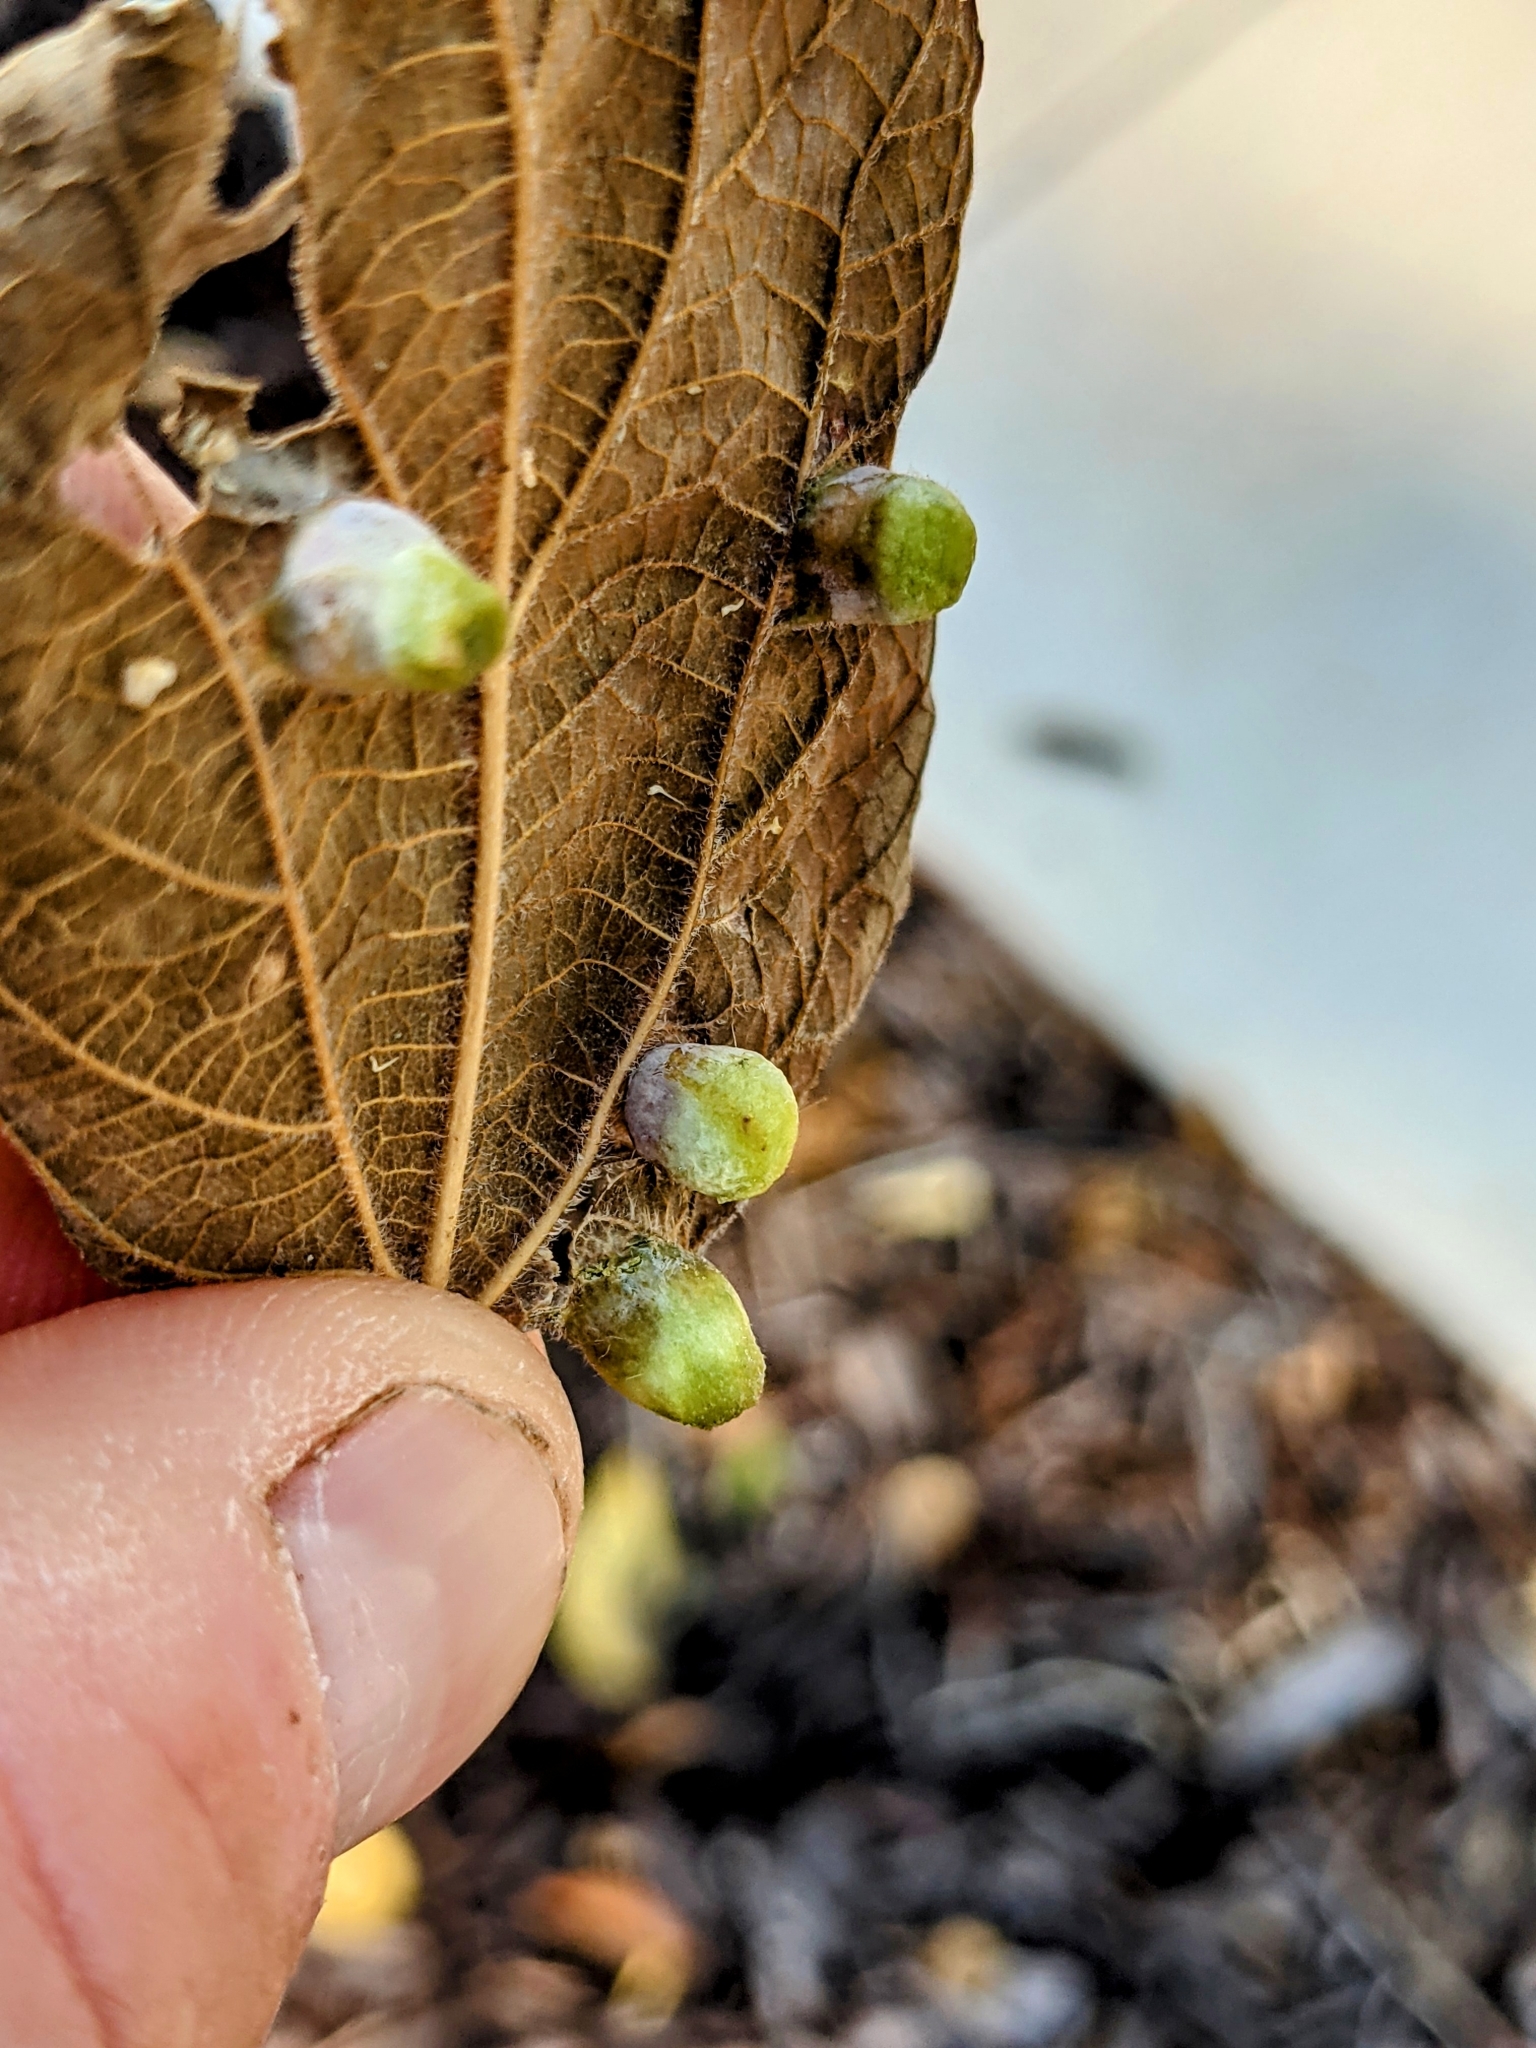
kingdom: Animalia
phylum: Arthropoda
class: Insecta
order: Hemiptera
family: Aphalaridae
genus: Pachypsylla
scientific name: Pachypsylla celtidismamma
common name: Hackberry nipplegall psyllid
